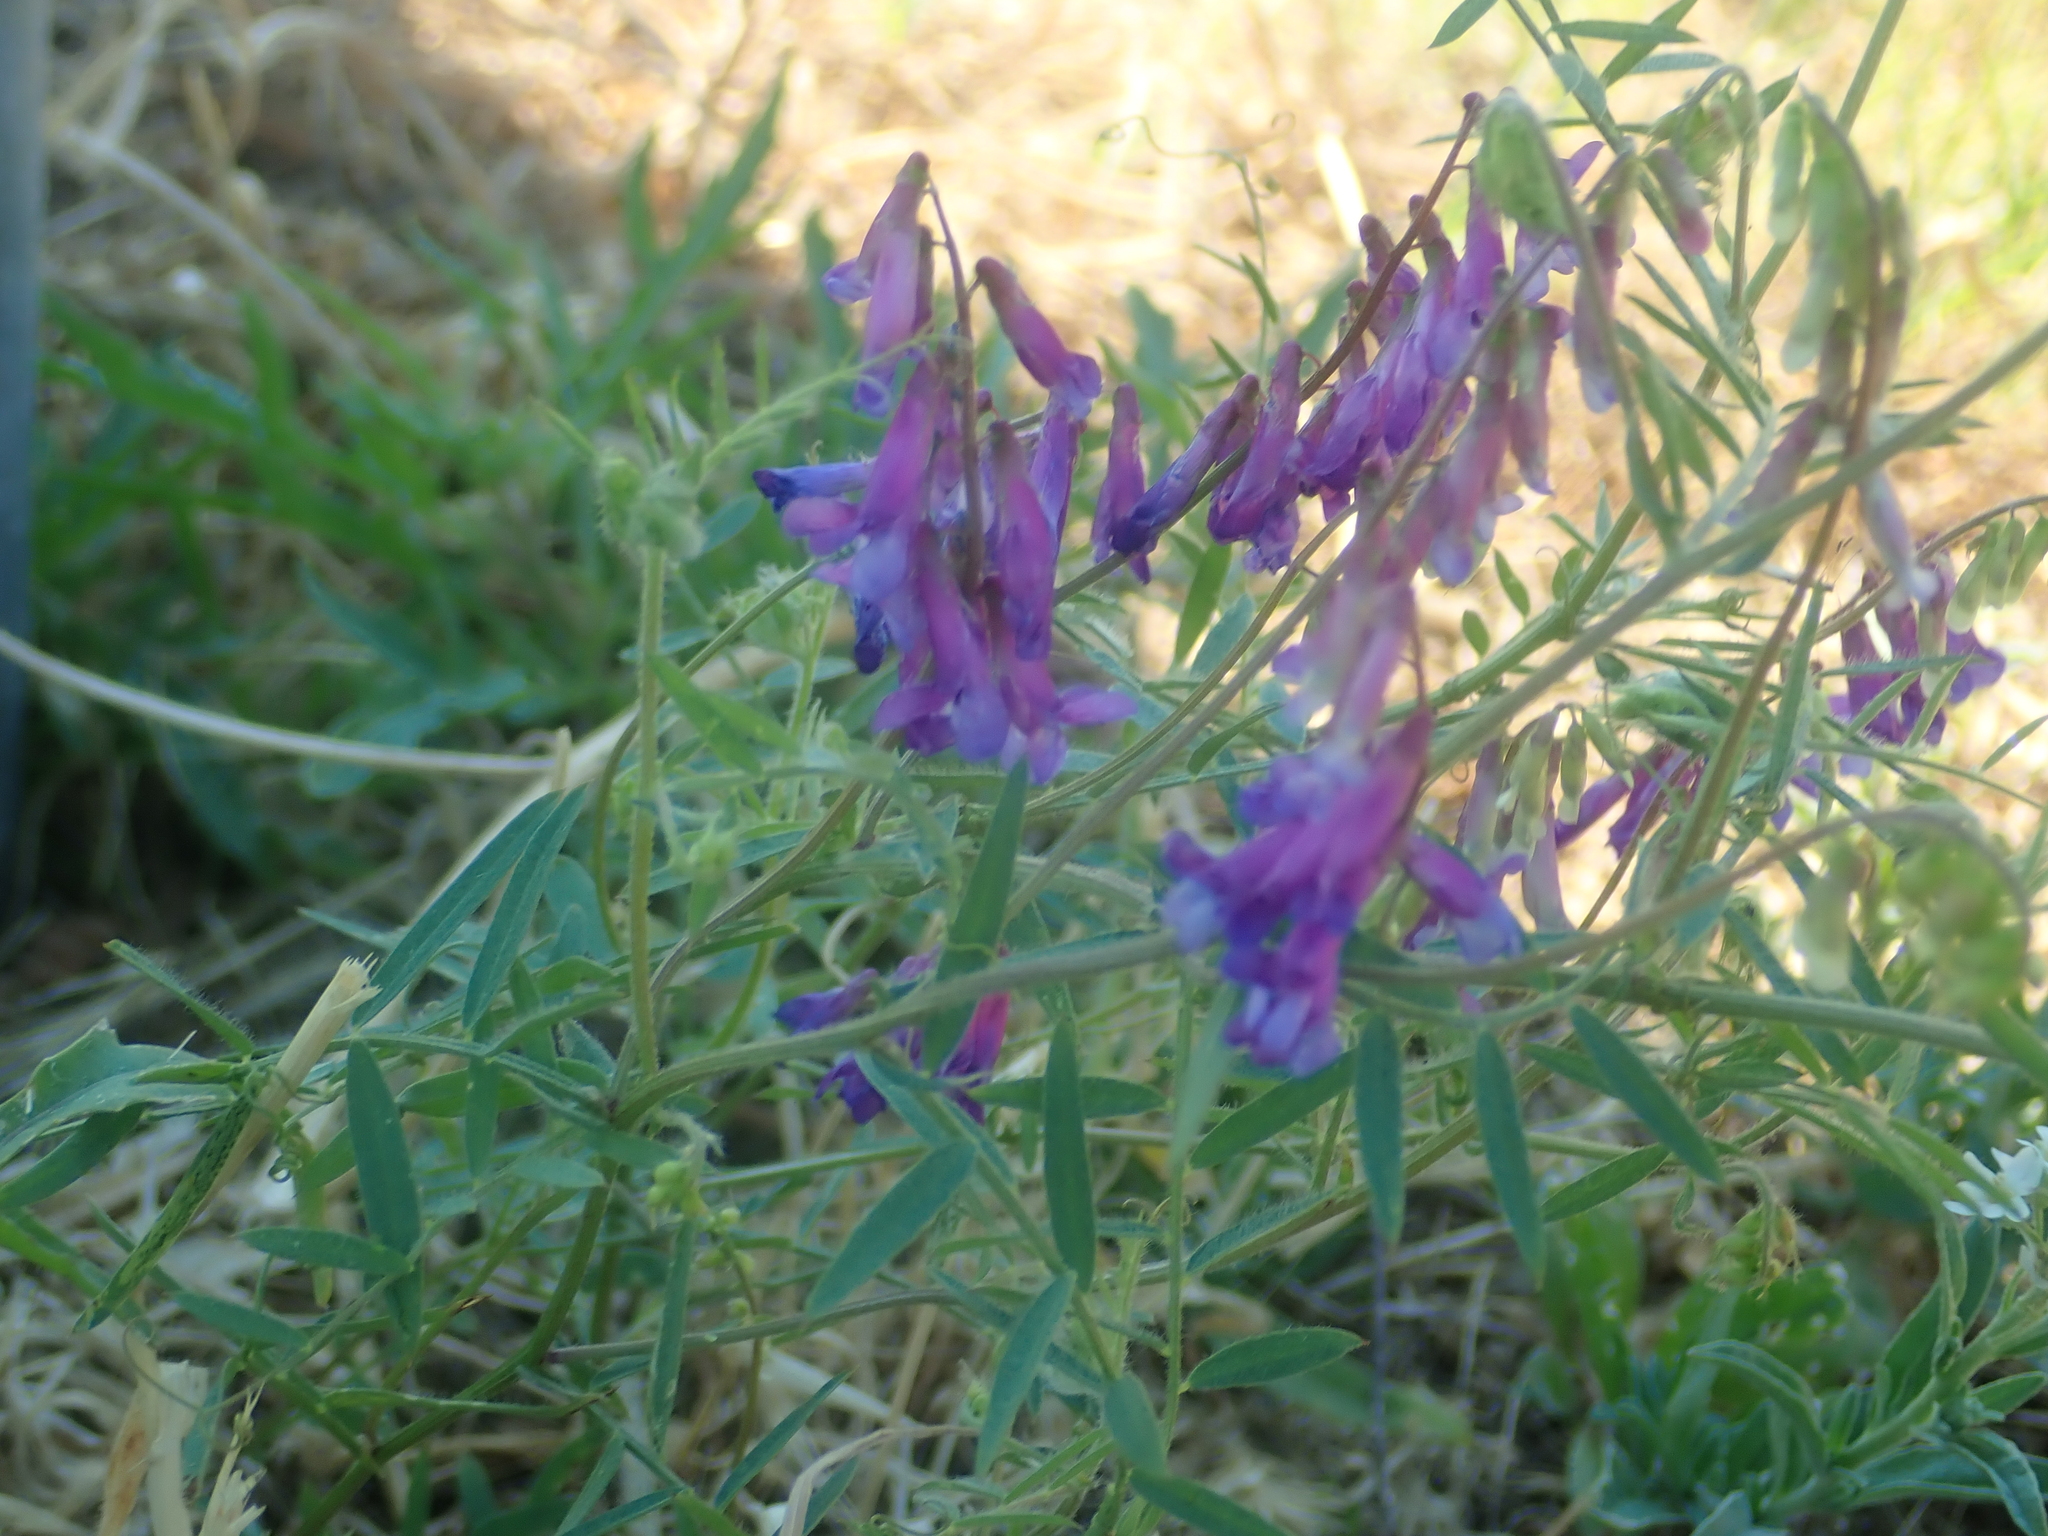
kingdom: Plantae
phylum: Tracheophyta
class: Magnoliopsida
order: Fabales
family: Fabaceae
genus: Vicia
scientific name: Vicia villosa
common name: Fodder vetch
